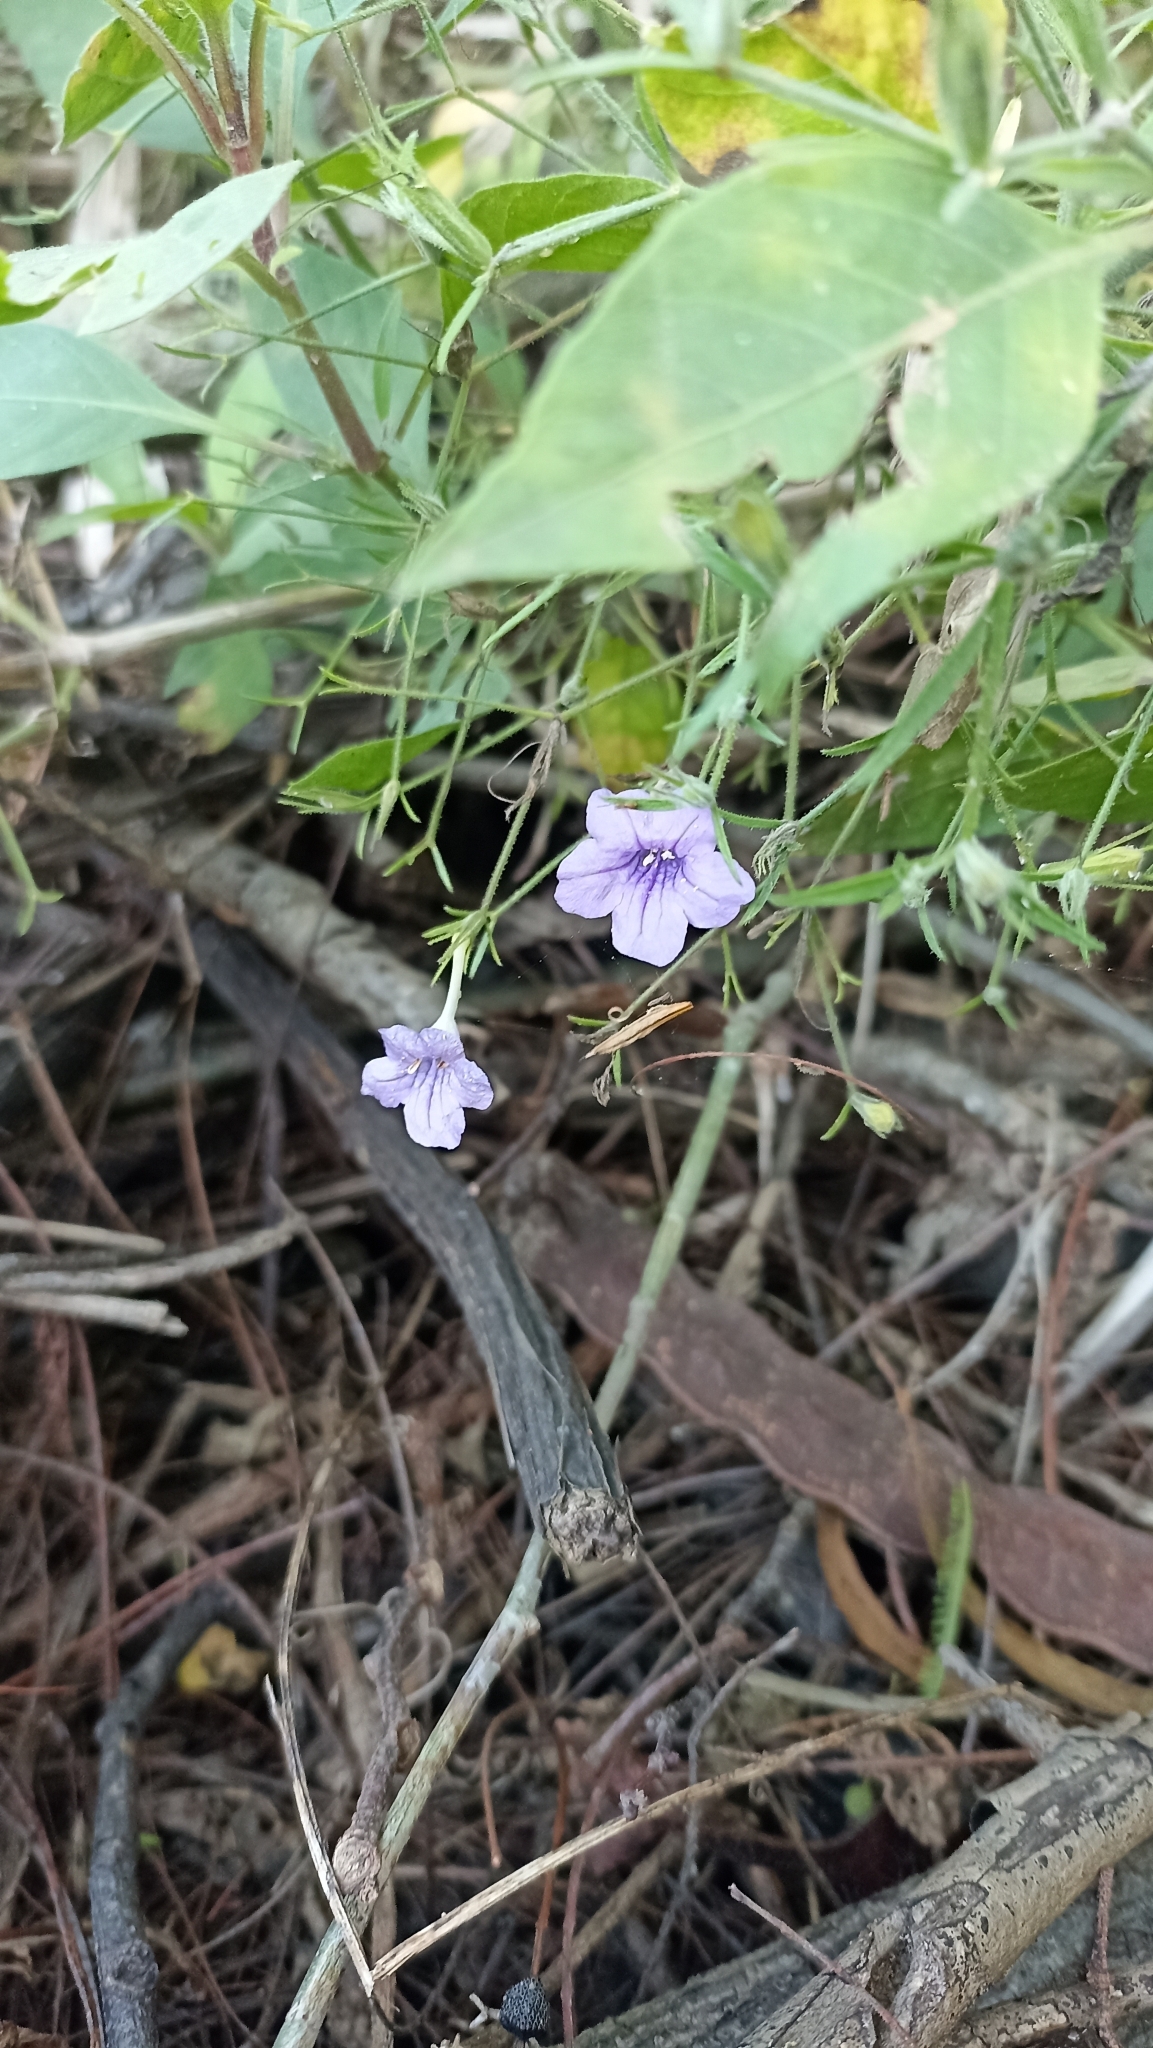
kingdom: Plantae
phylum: Tracheophyta
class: Magnoliopsida
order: Lamiales
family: Acanthaceae
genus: Ruellia
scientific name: Ruellia paniculata
